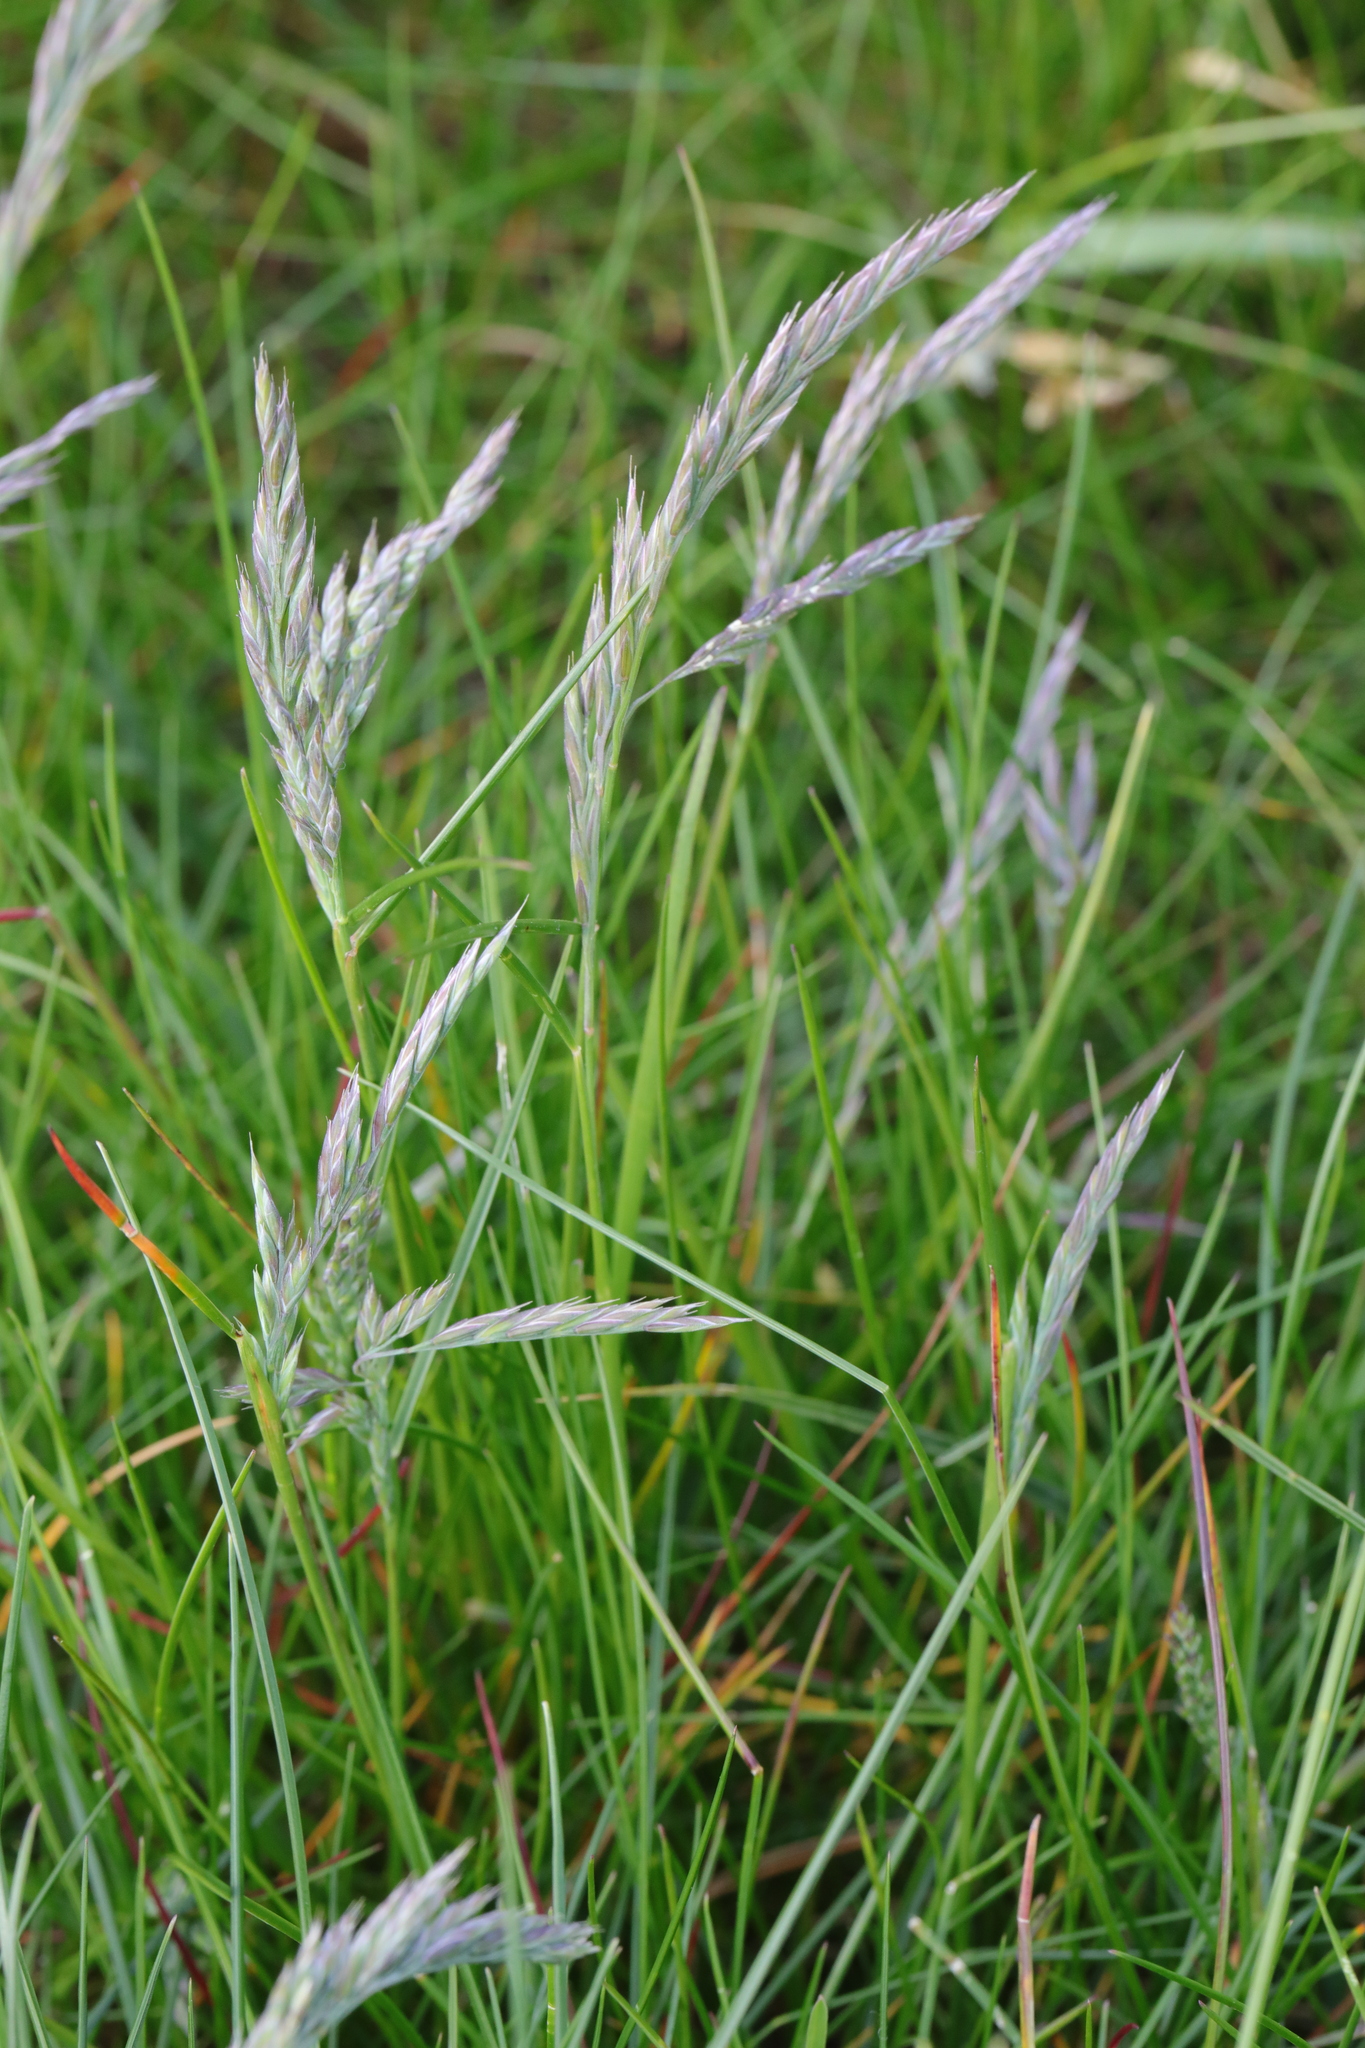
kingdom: Plantae
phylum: Tracheophyta
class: Liliopsida
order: Poales
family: Poaceae
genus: Festuca
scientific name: Festuca rubra
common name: Red fescue
